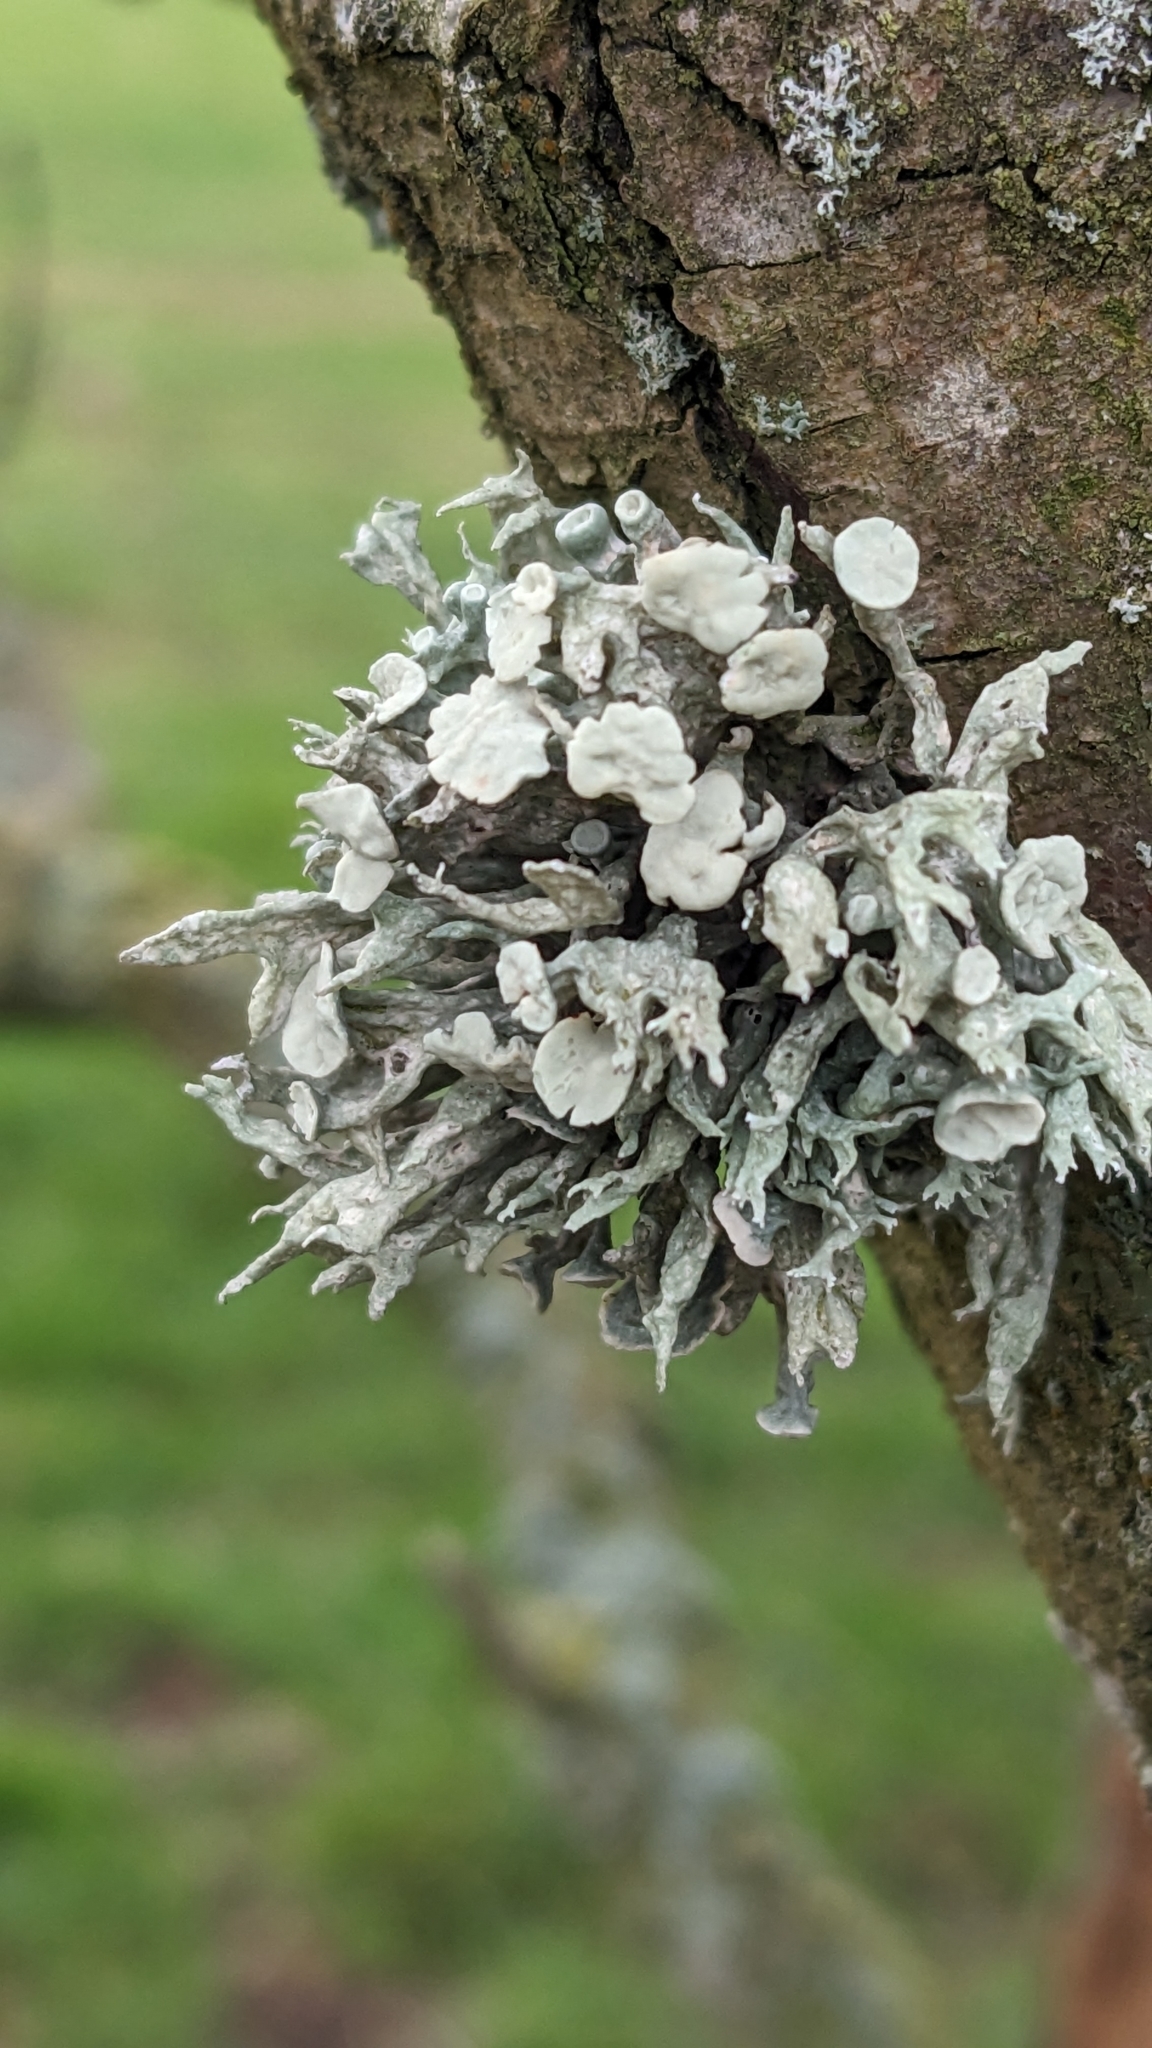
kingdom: Fungi
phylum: Ascomycota
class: Lecanoromycetes
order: Lecanorales
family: Ramalinaceae
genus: Ramalina
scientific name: Ramalina fastigiata
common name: Dotted ribbon lichen
